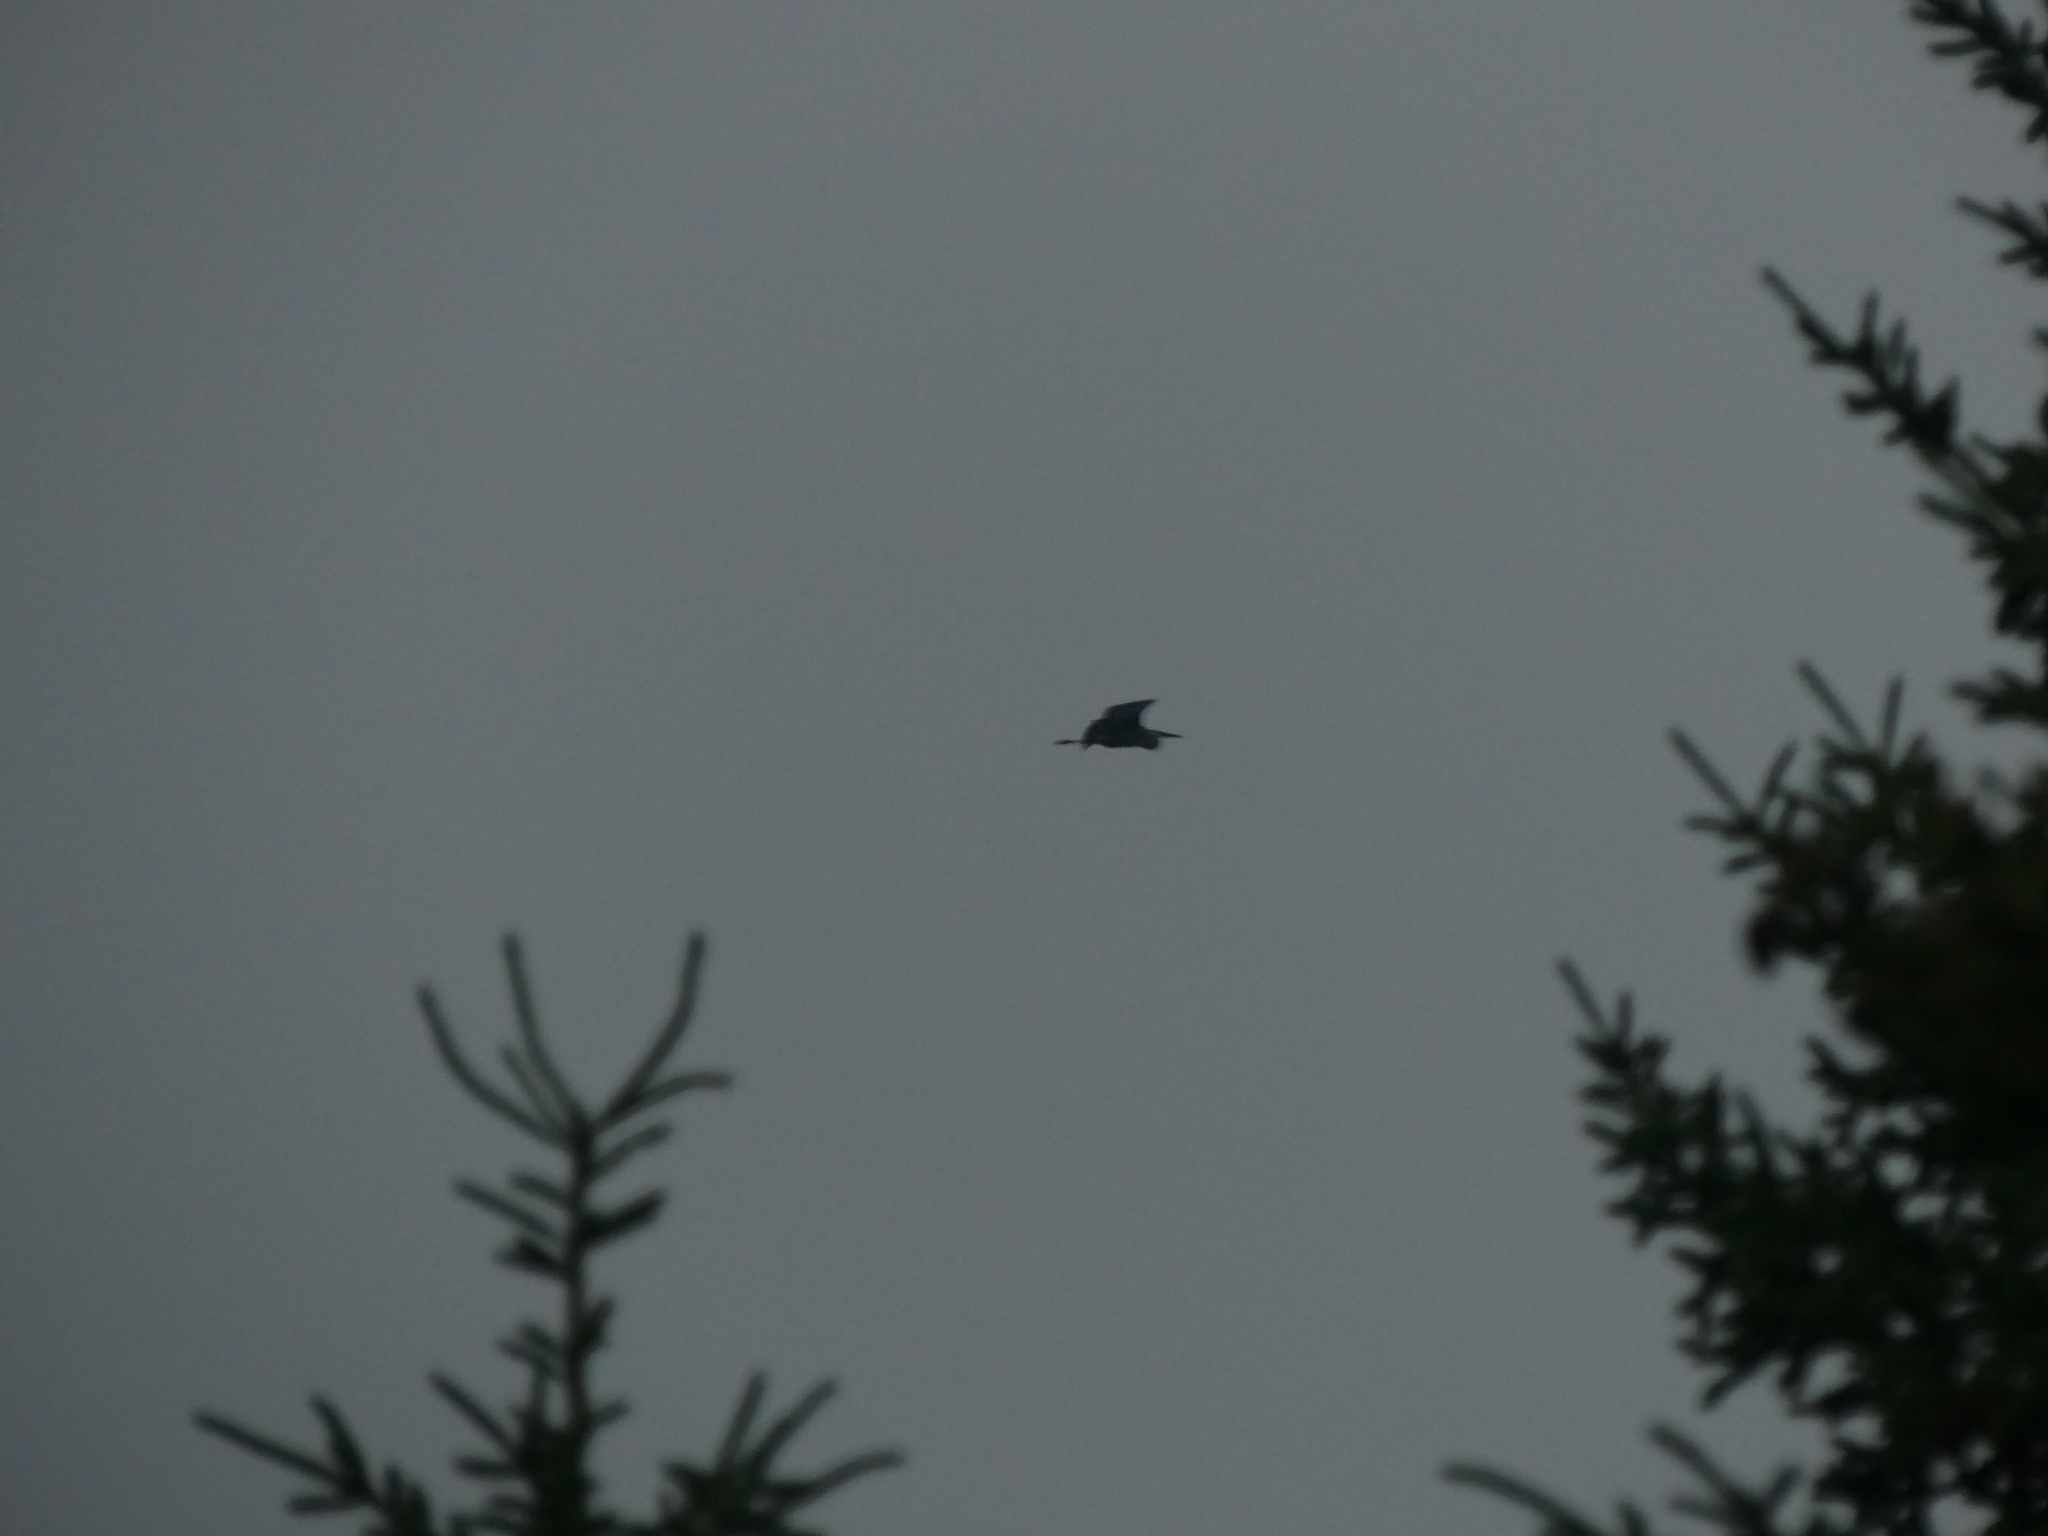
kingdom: Animalia
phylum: Chordata
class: Aves
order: Pelecaniformes
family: Ardeidae
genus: Ardea
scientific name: Ardea herodias
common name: Great blue heron
